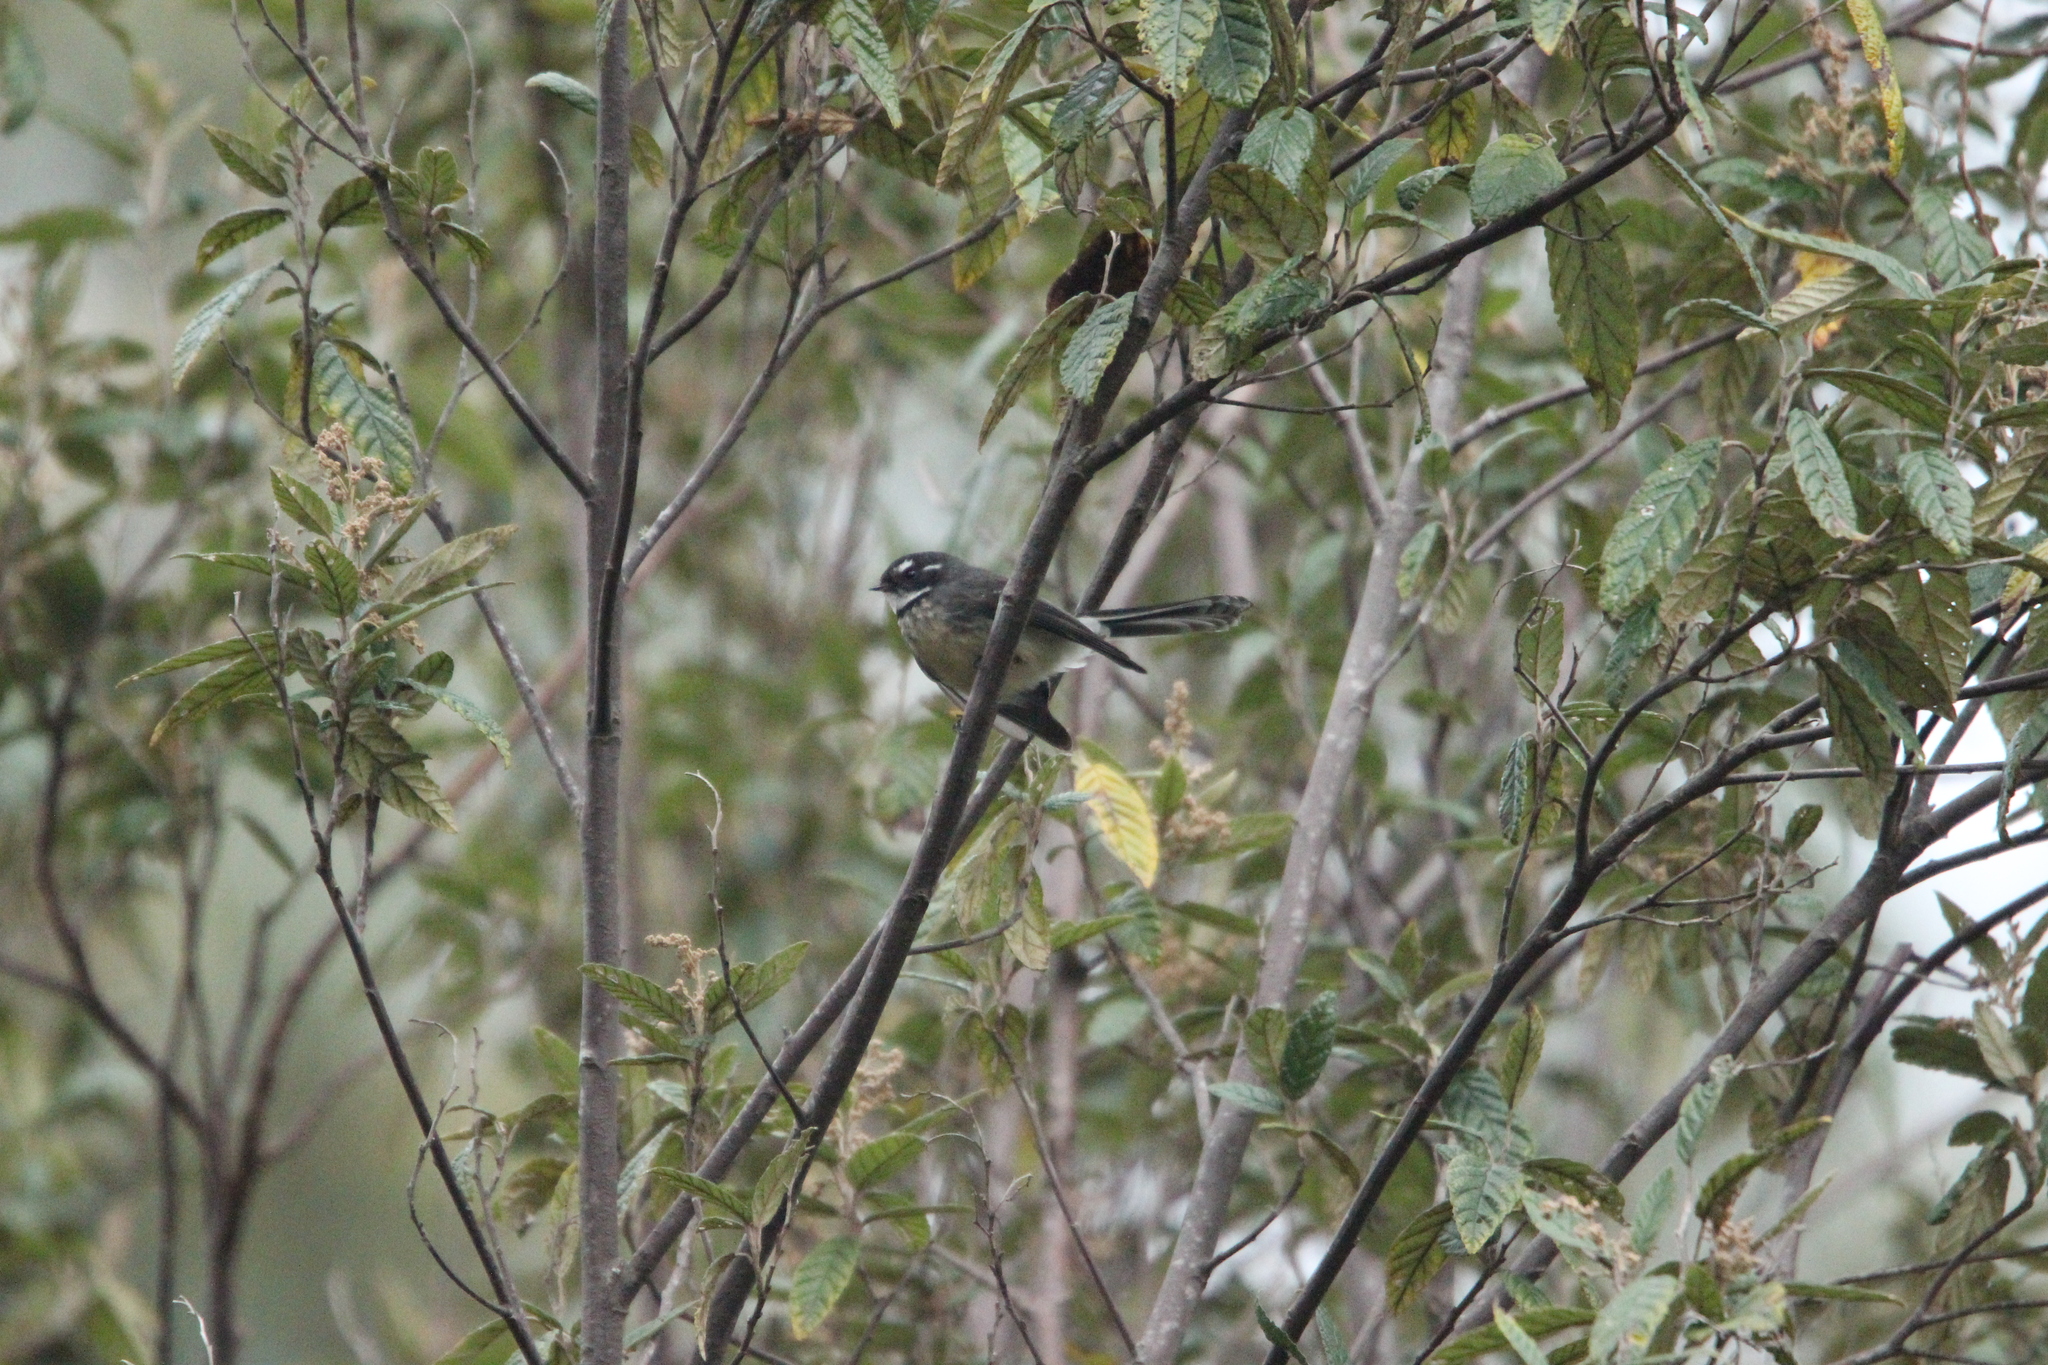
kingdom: Animalia
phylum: Chordata
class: Aves
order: Passeriformes
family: Rhipiduridae
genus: Rhipidura
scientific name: Rhipidura albiscapa
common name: Grey fantail
